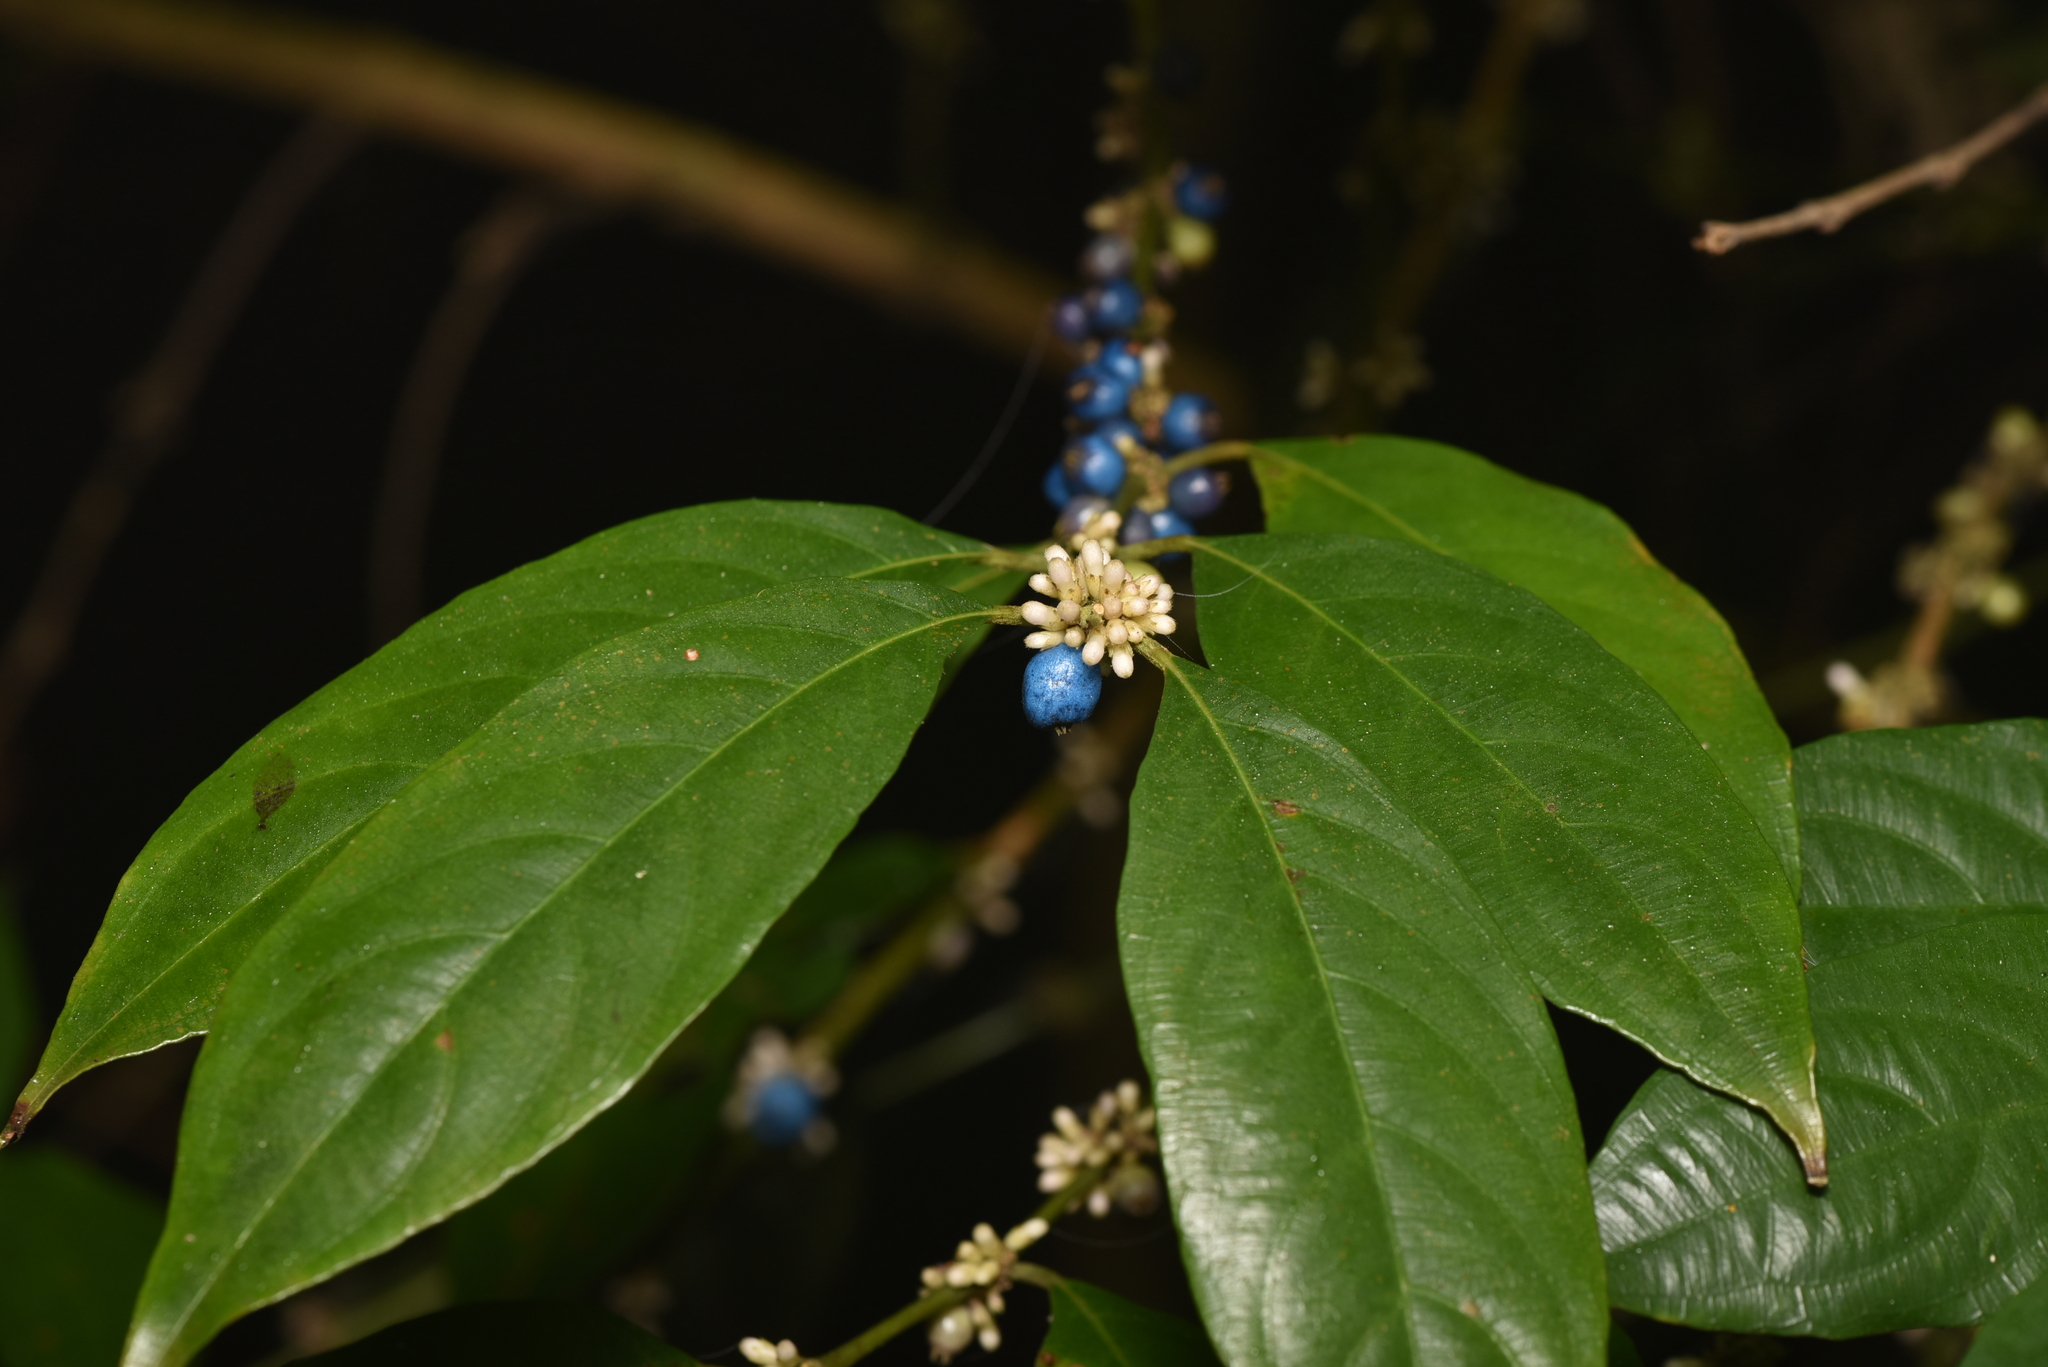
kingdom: Plantae
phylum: Tracheophyta
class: Magnoliopsida
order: Gentianales
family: Rubiaceae
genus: Lasianthus
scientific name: Lasianthus fordii
